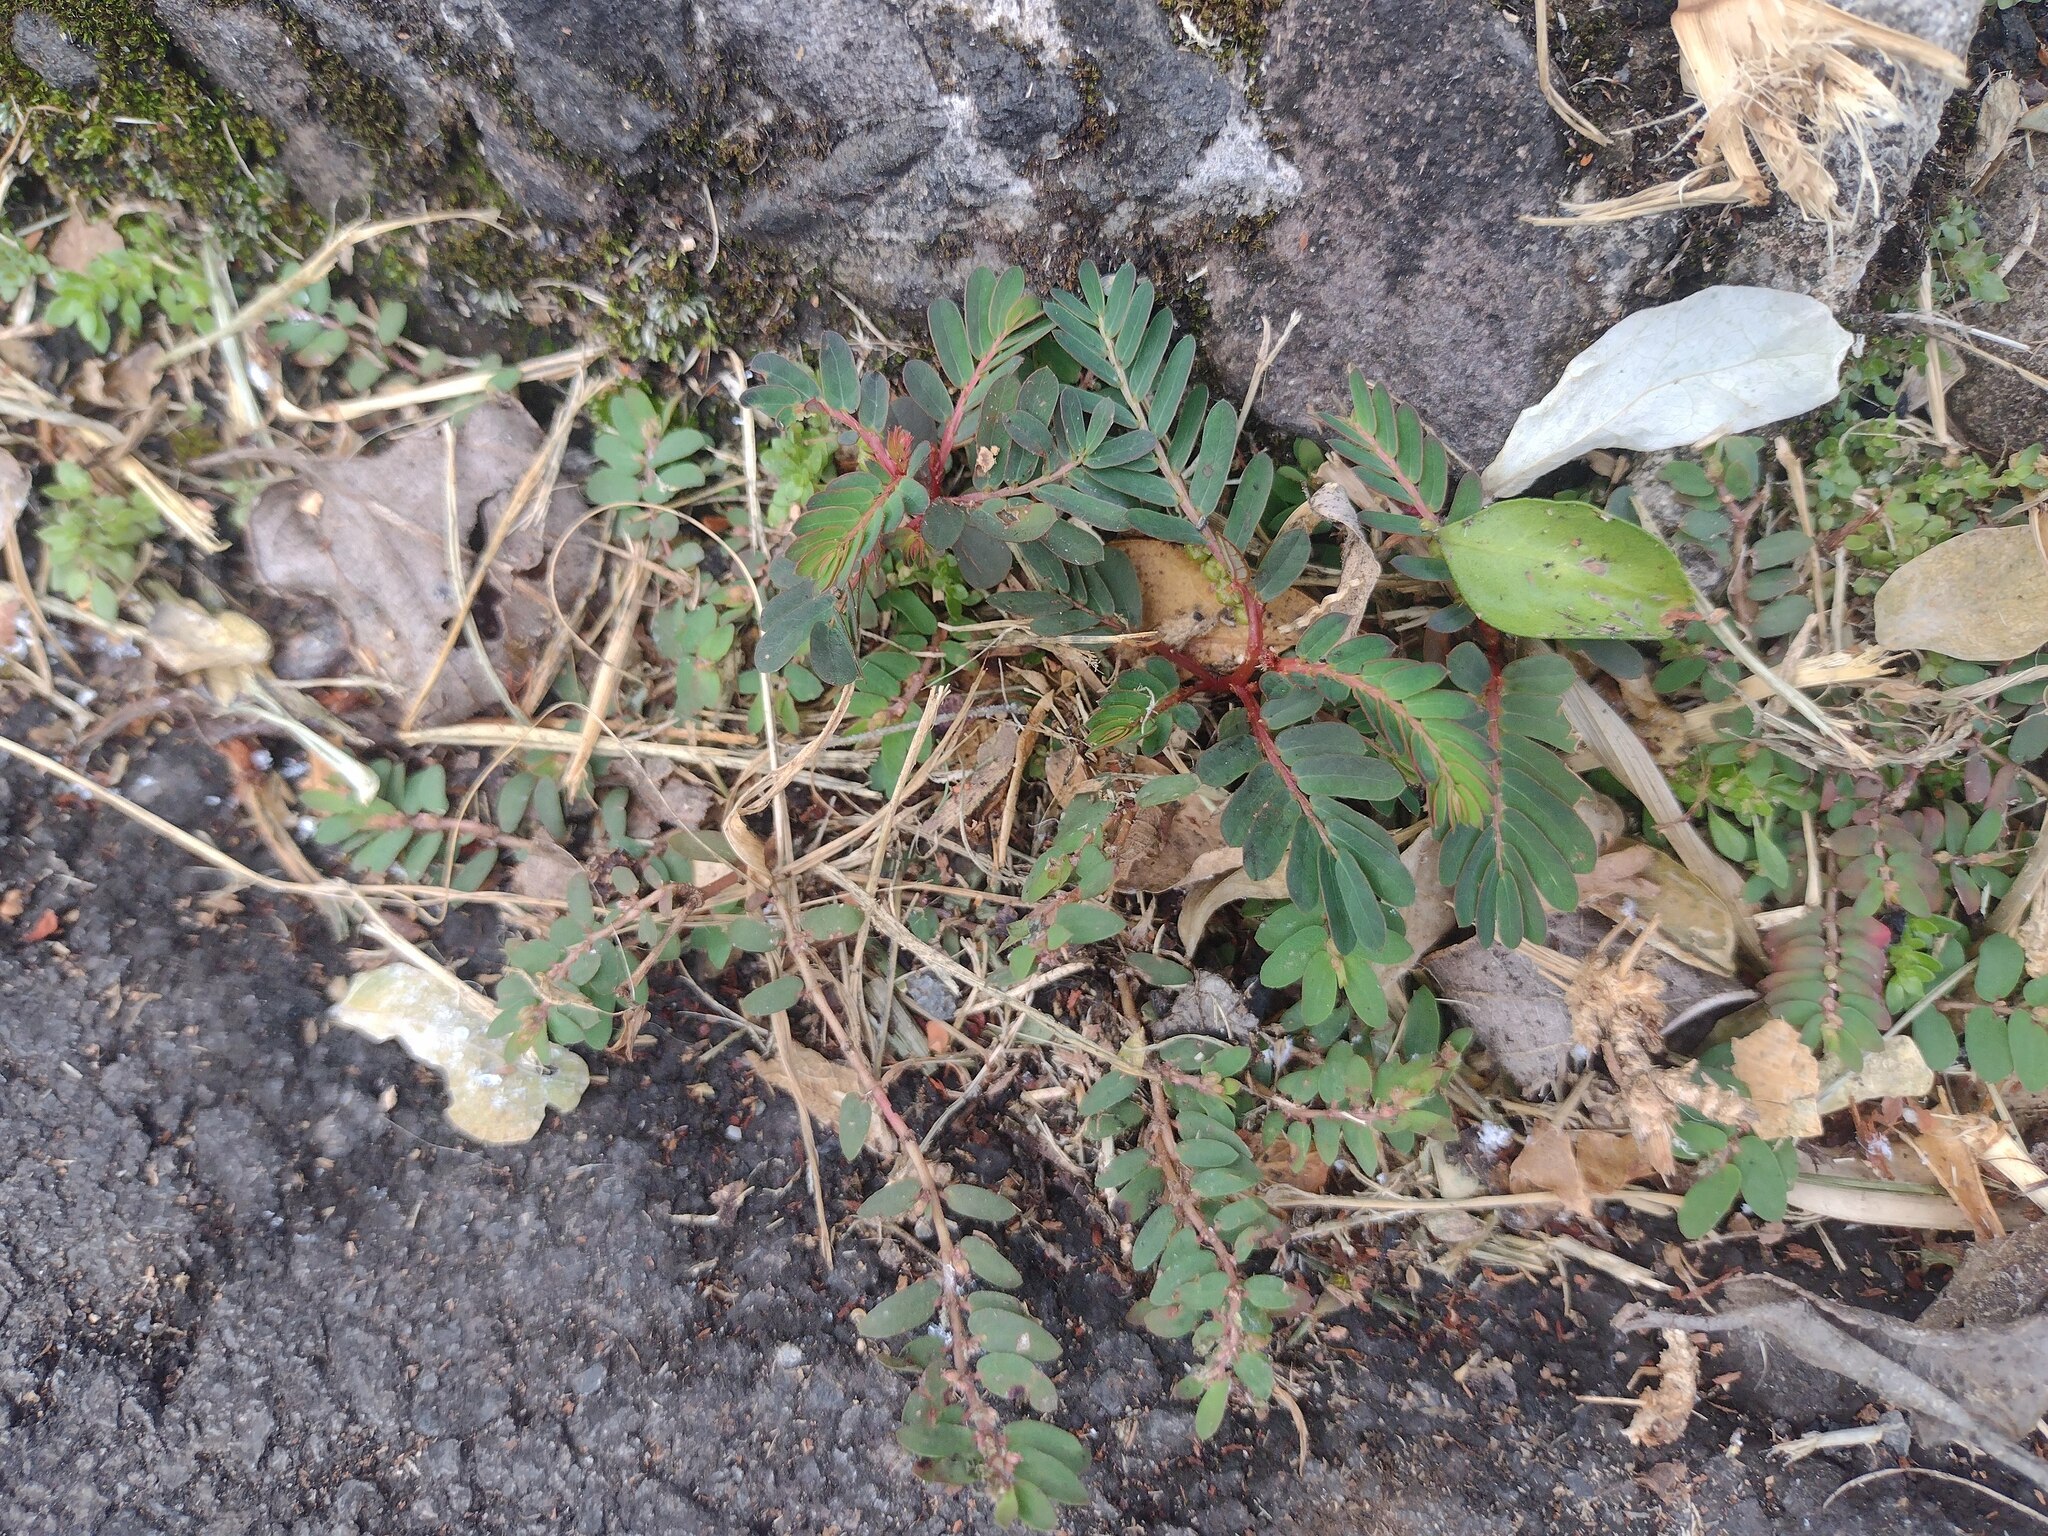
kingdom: Plantae
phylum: Tracheophyta
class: Magnoliopsida
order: Malpighiales
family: Phyllanthaceae
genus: Phyllanthus
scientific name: Phyllanthus urinaria
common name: Chamber bitter
